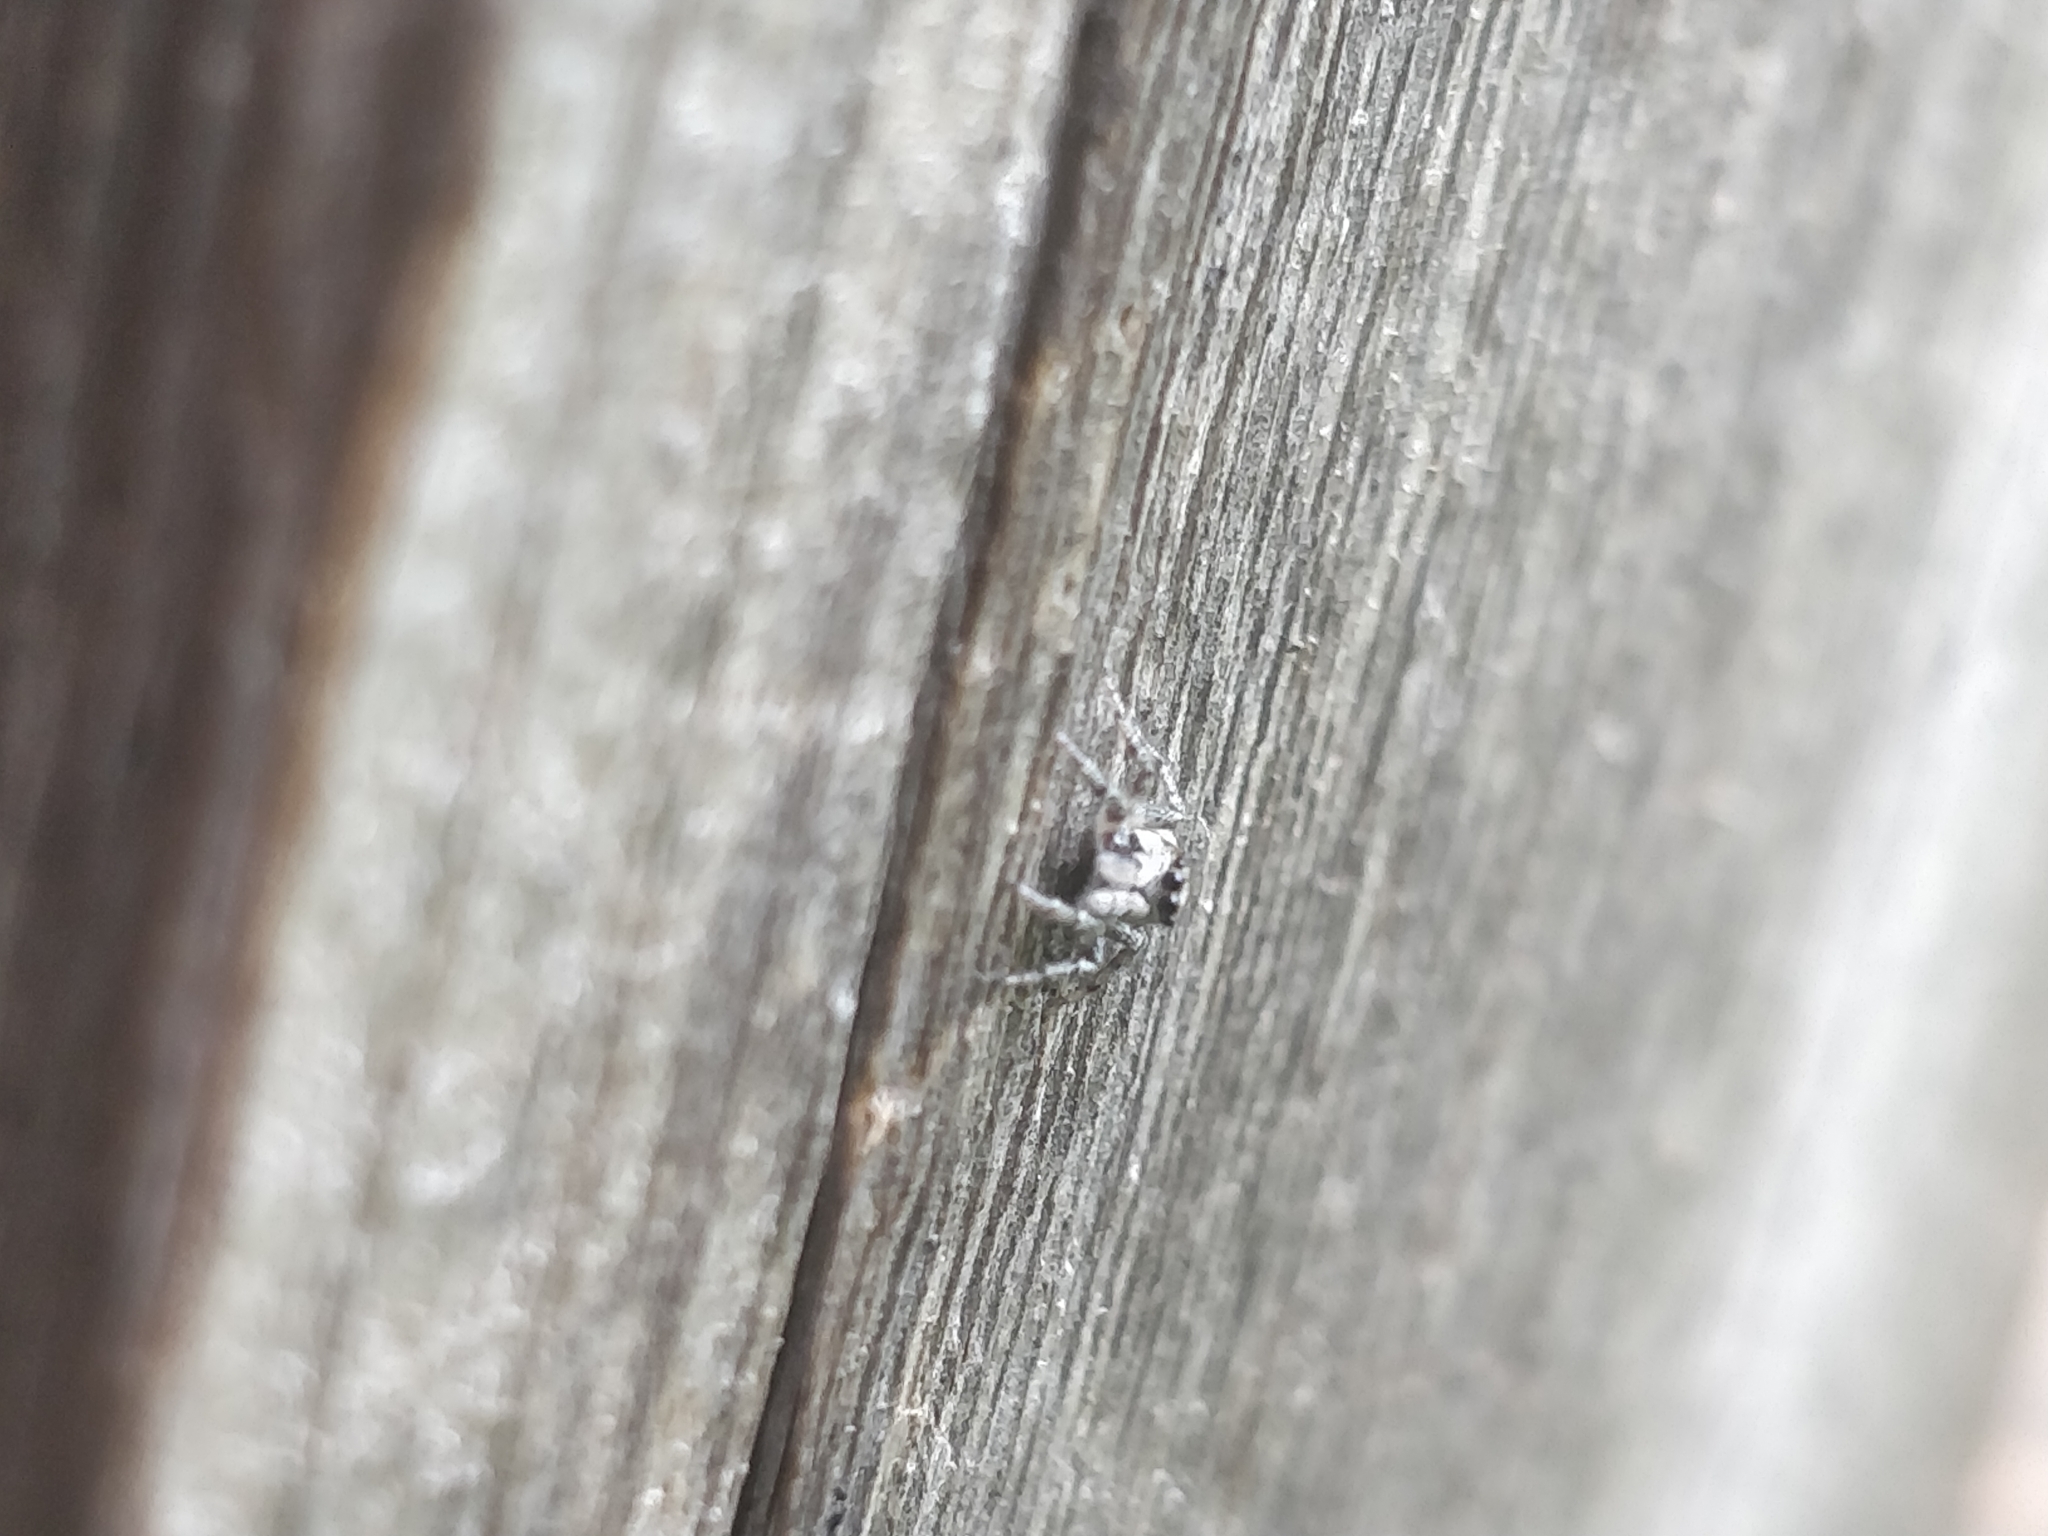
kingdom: Animalia
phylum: Arthropoda
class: Arachnida
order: Araneae
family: Salticidae
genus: Salticus
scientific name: Salticus scenicus
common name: Zebra jumper
